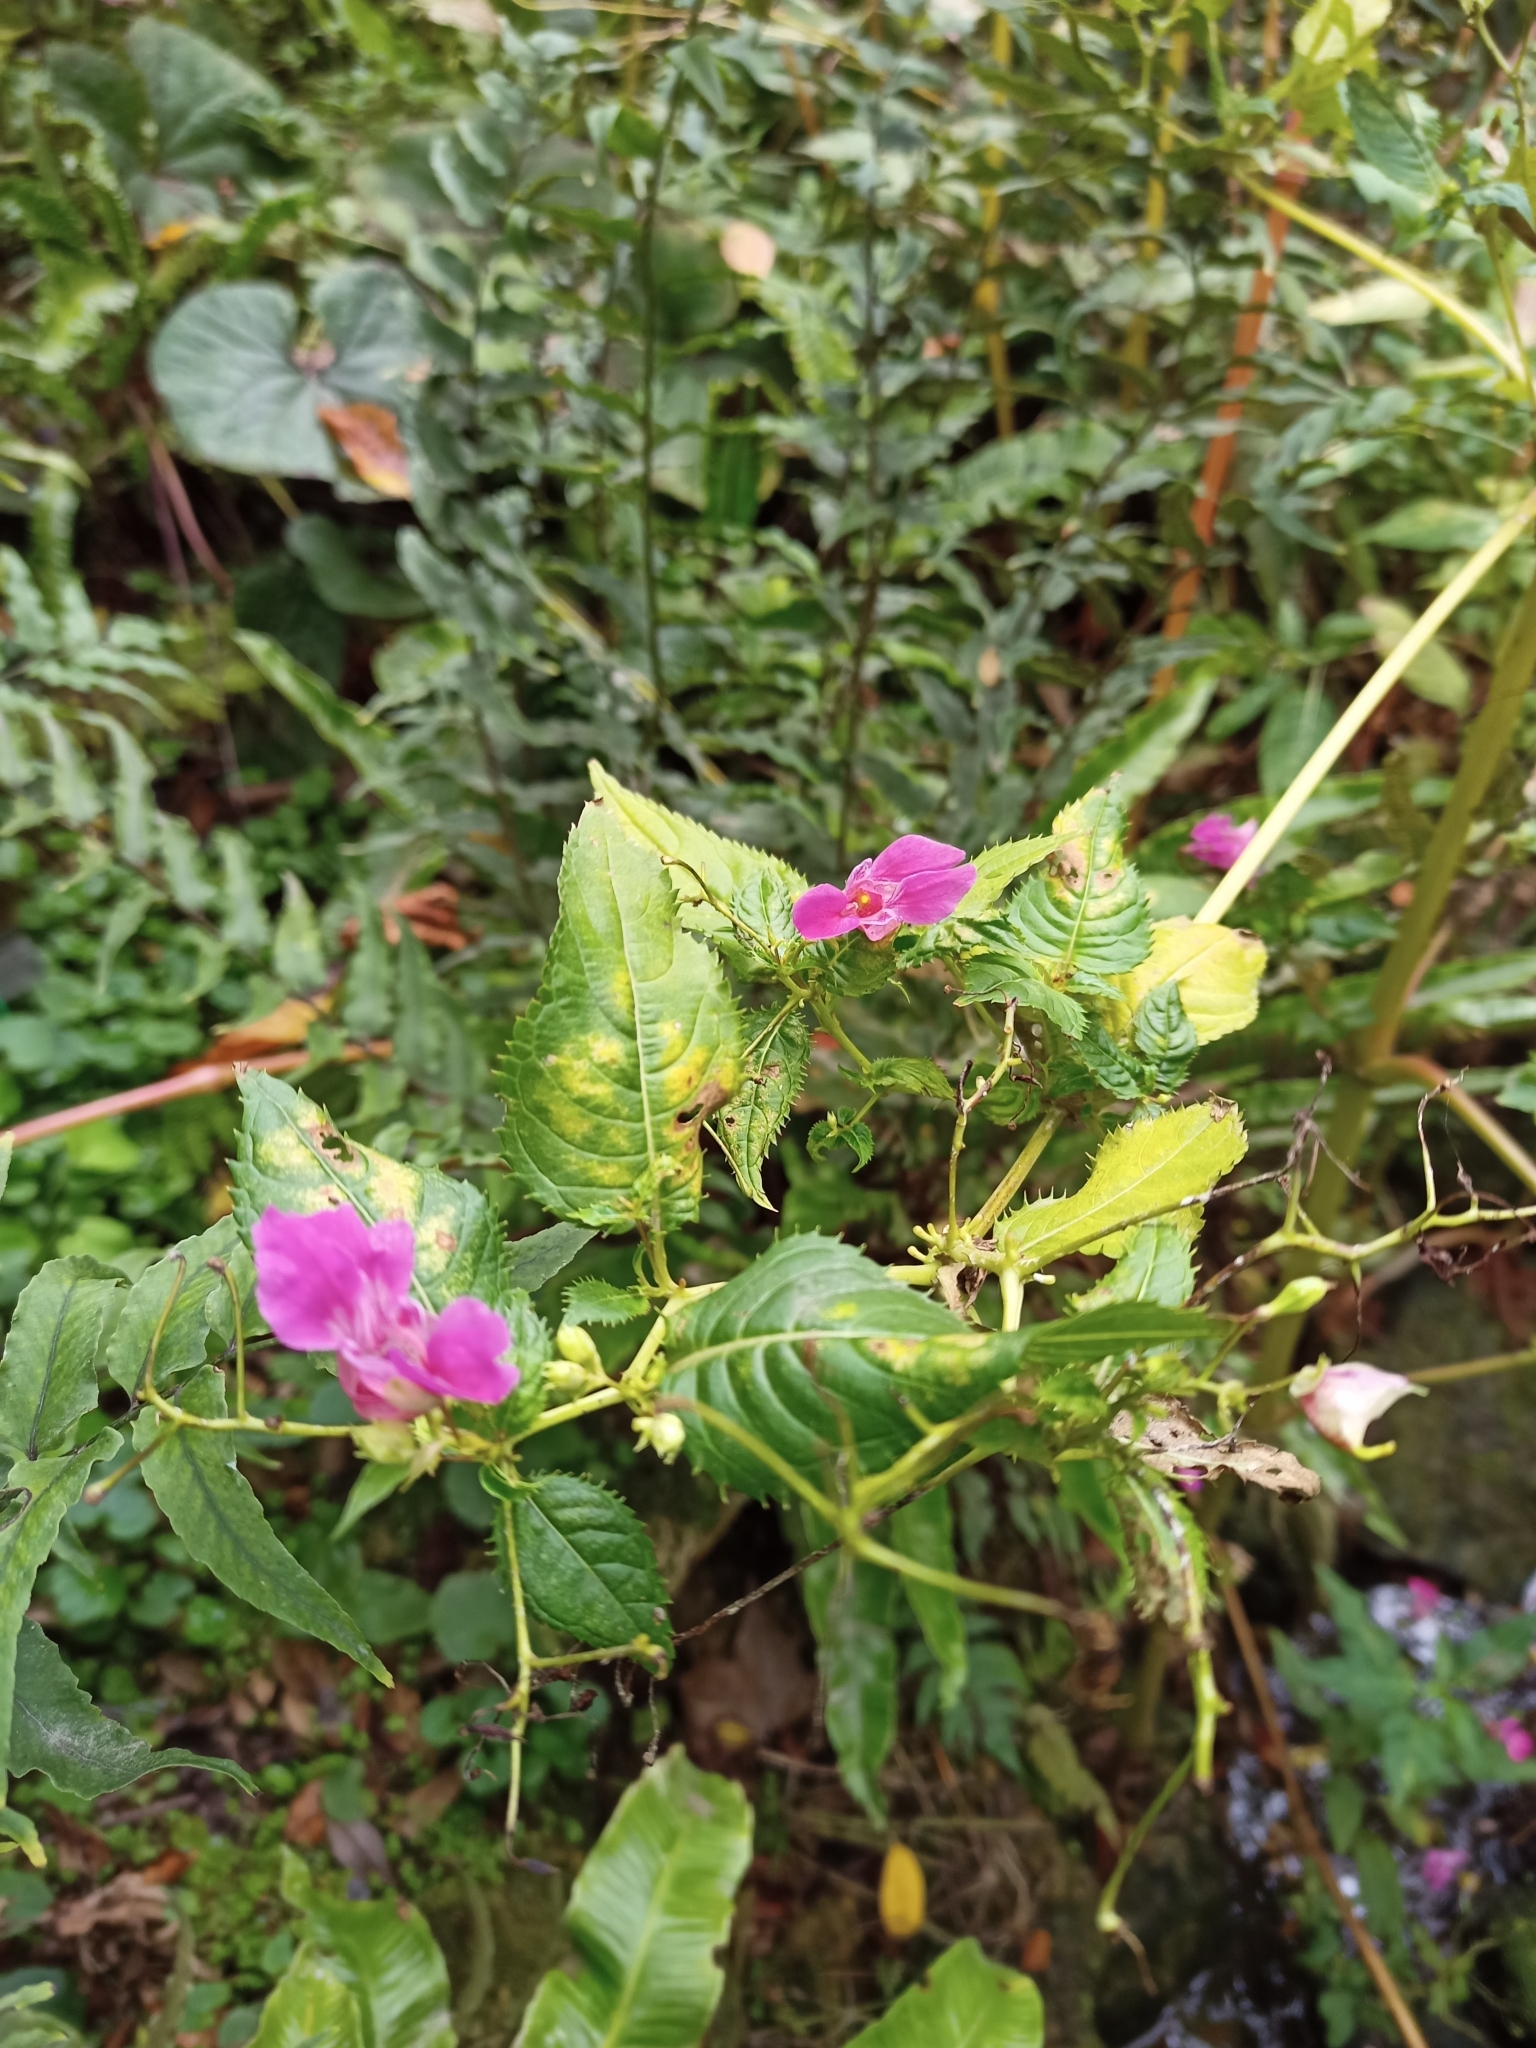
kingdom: Plantae
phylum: Tracheophyta
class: Magnoliopsida
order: Ericales
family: Balsaminaceae
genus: Impatiens
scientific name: Impatiens glandulifera
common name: Himalayan balsam
